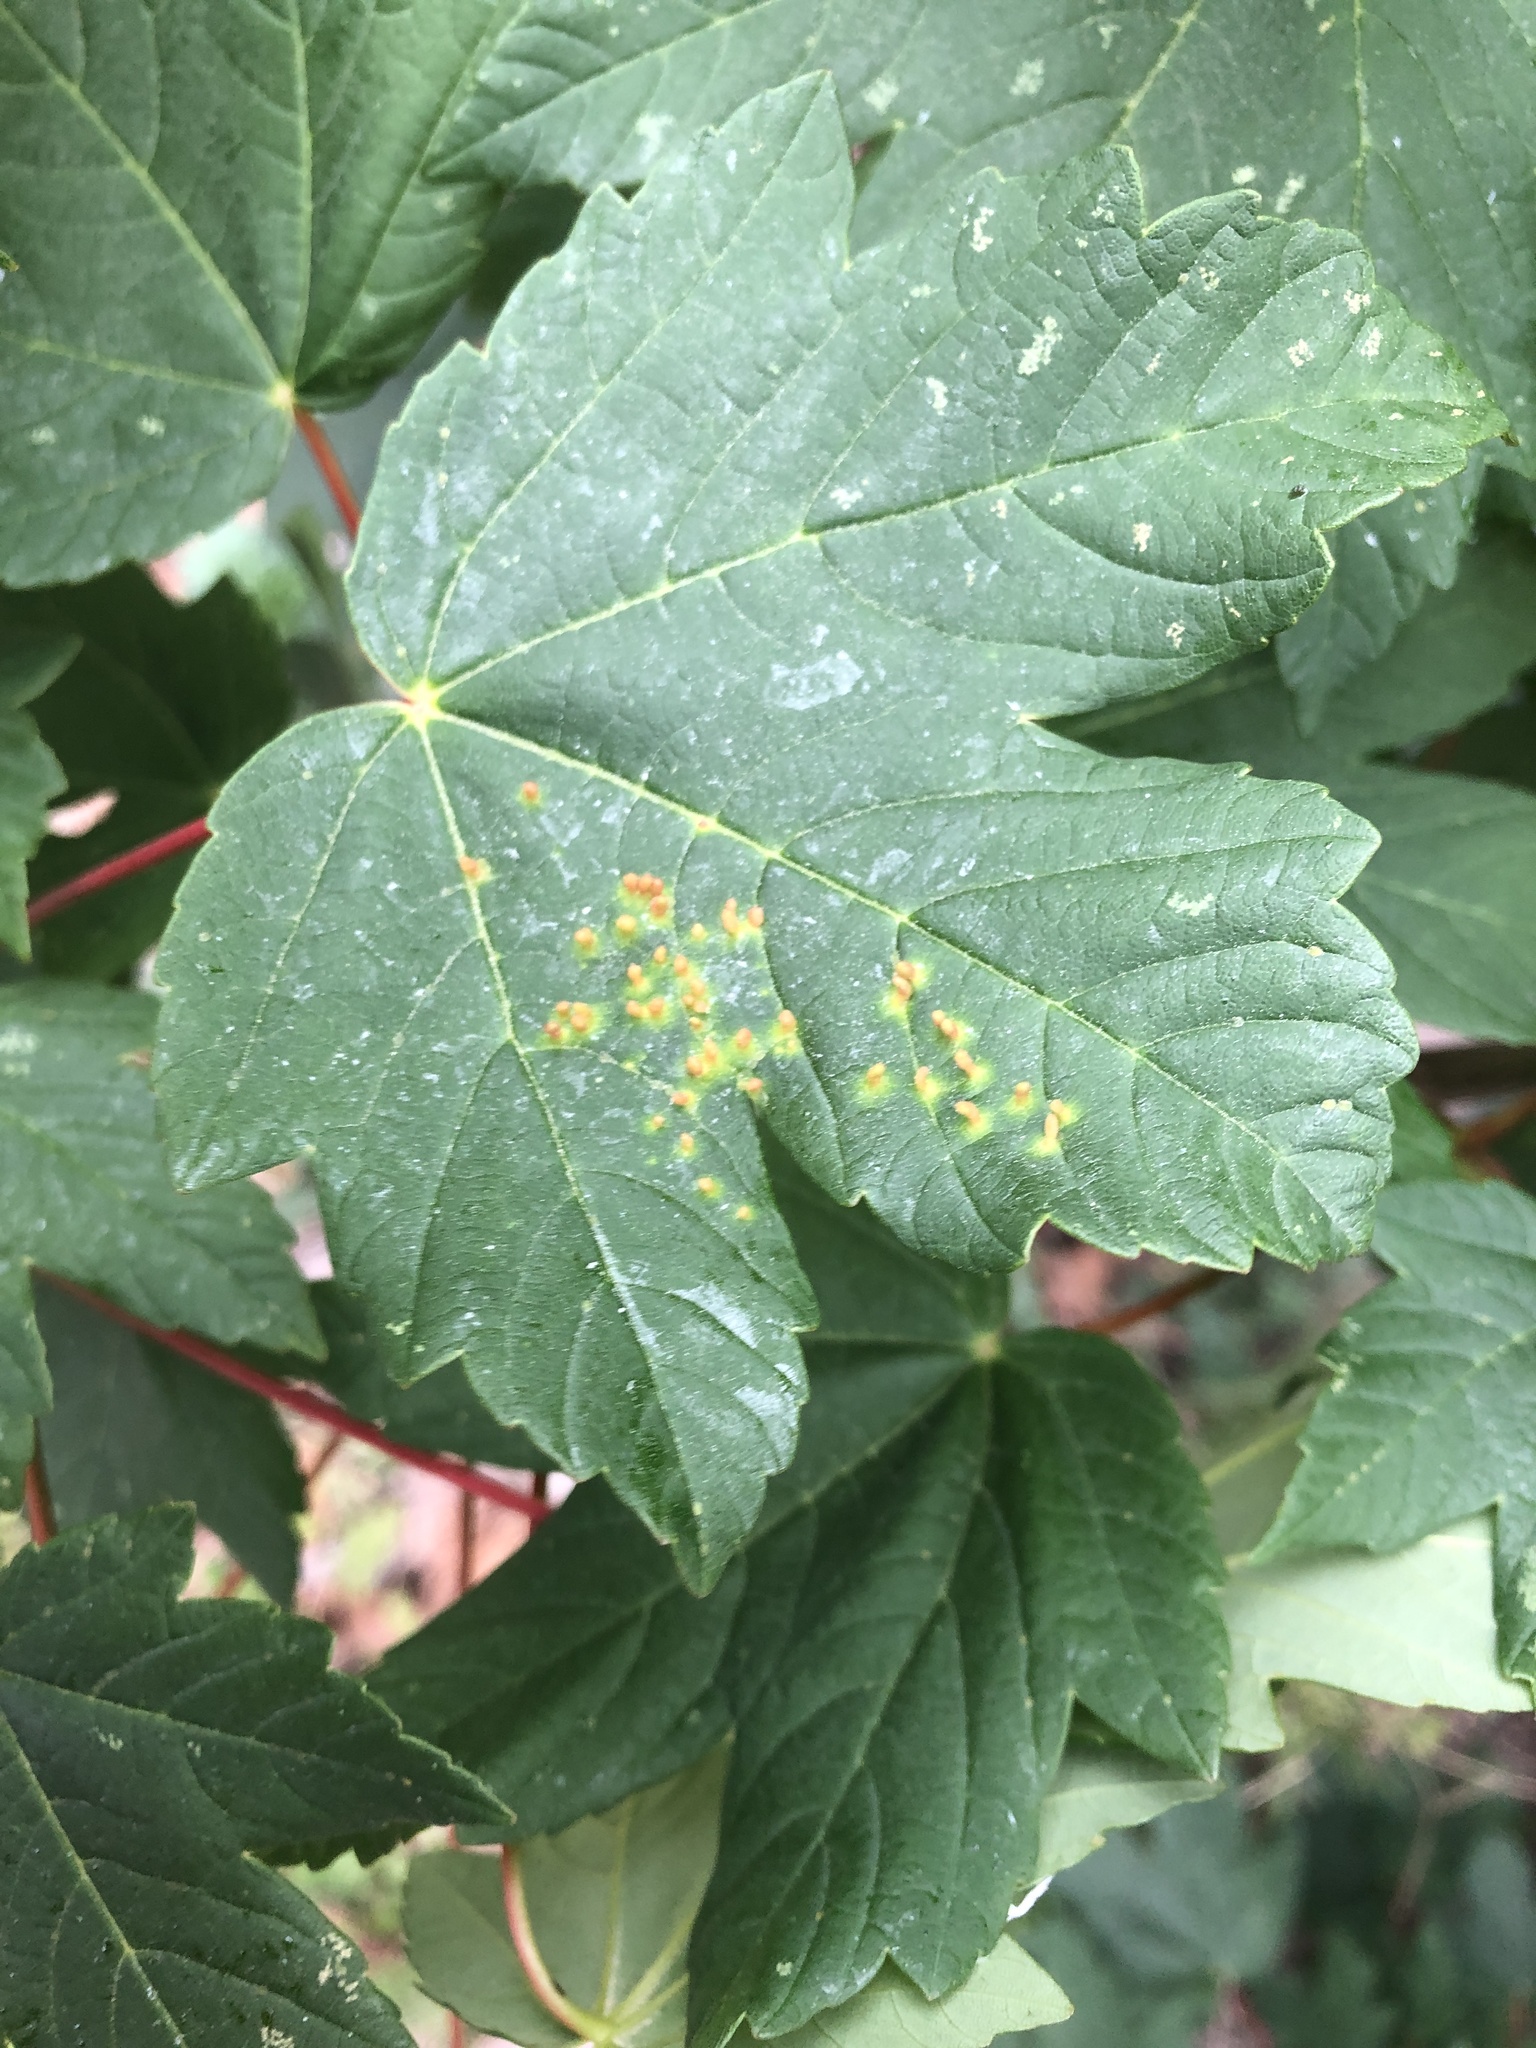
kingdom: Animalia
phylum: Arthropoda
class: Arachnida
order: Trombidiformes
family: Eriophyidae
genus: Aceria
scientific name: Aceria cephaloneus
